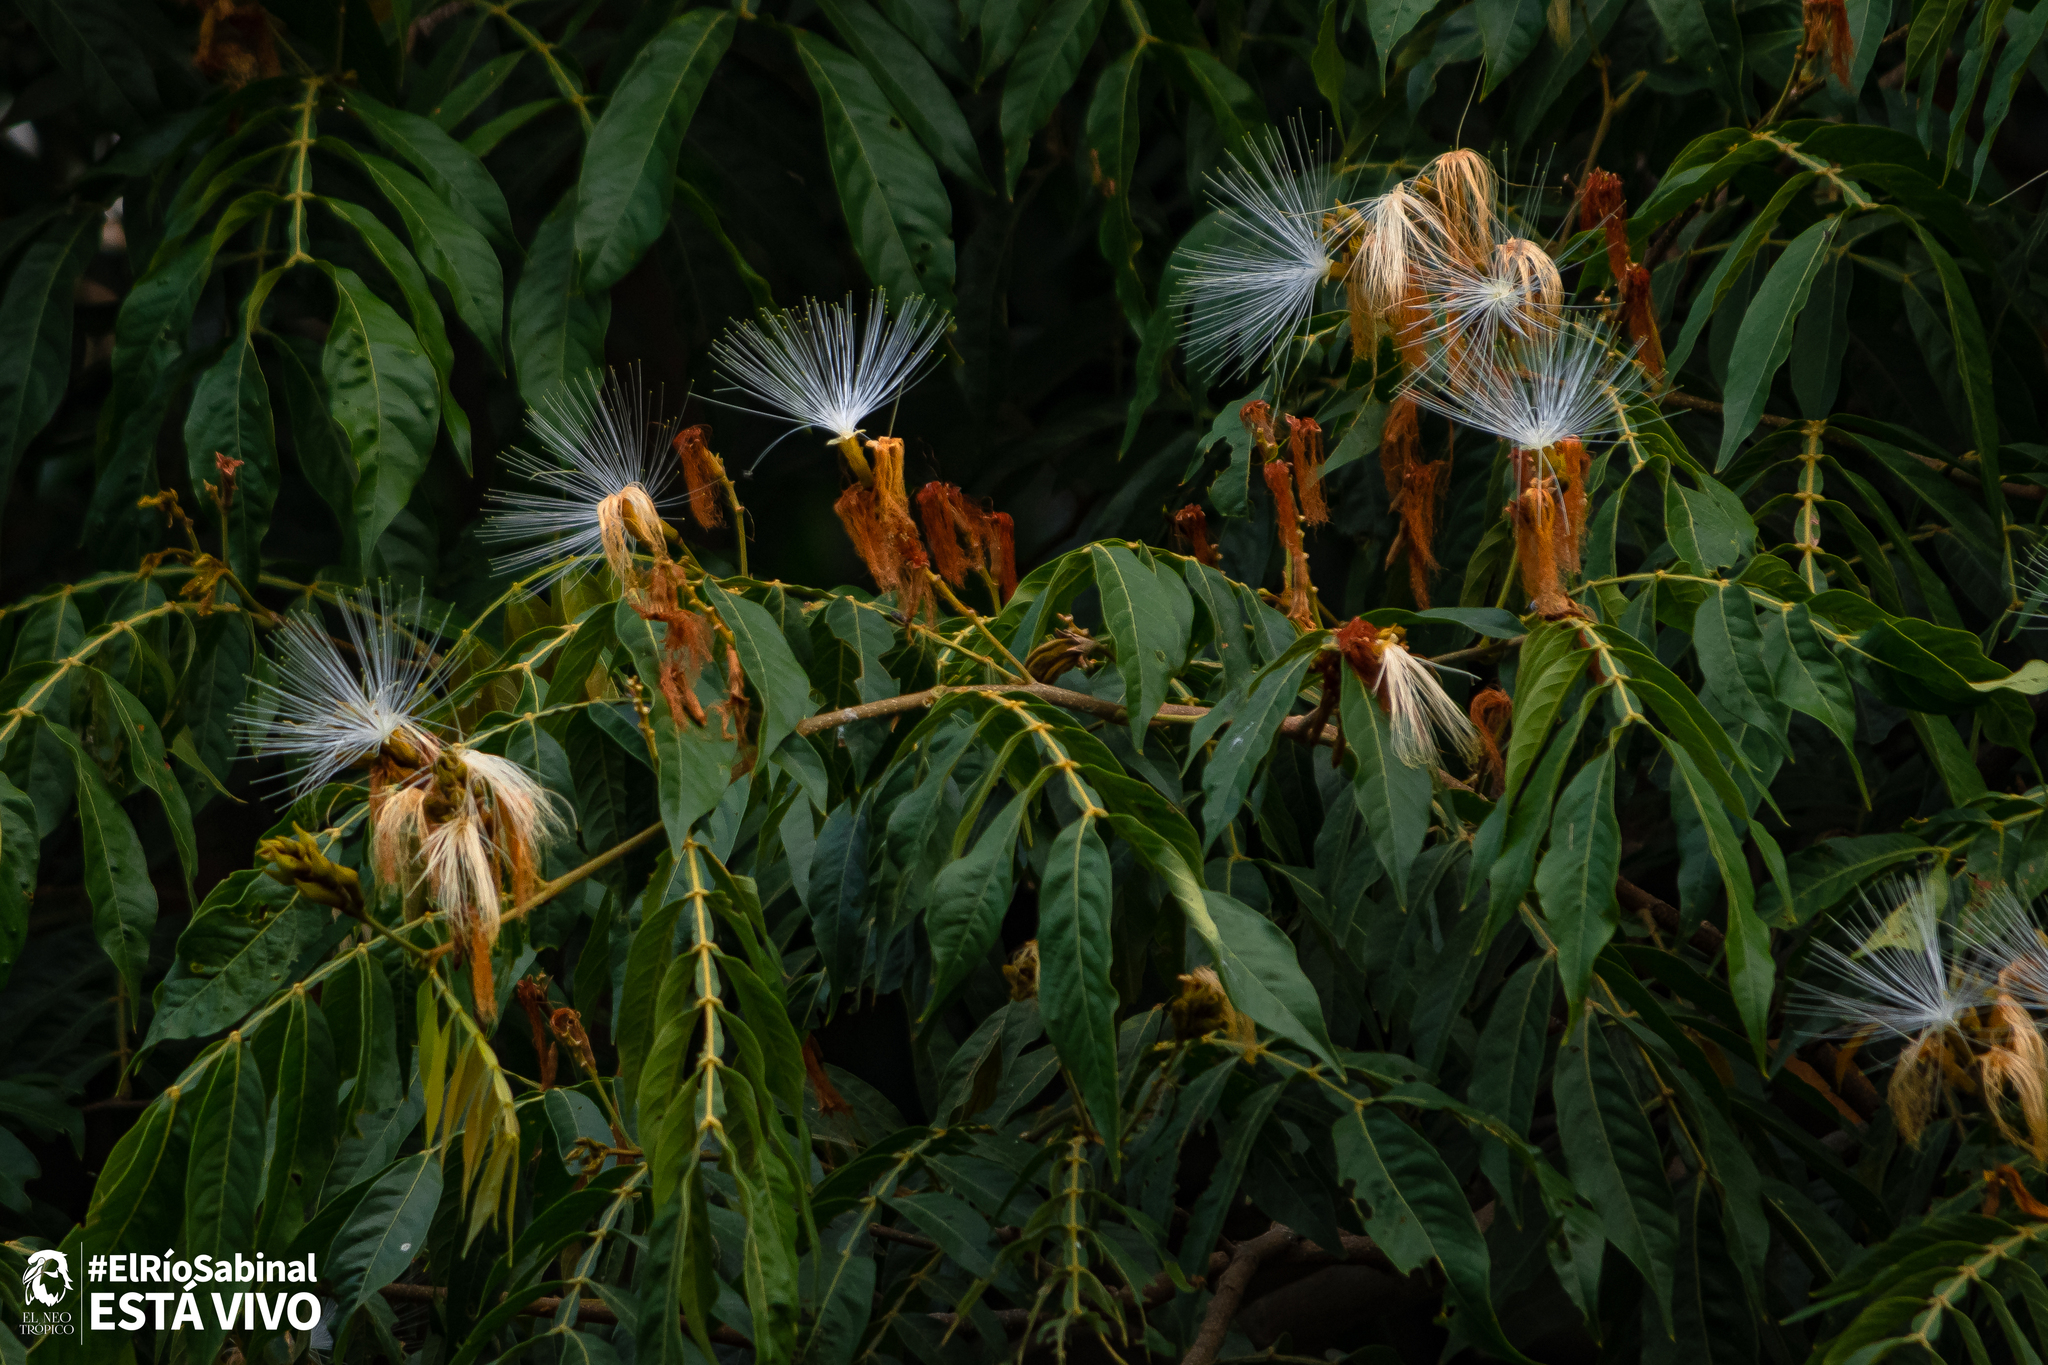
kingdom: Plantae
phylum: Tracheophyta
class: Magnoliopsida
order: Fabales
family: Fabaceae
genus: Inga
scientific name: Inga vera
